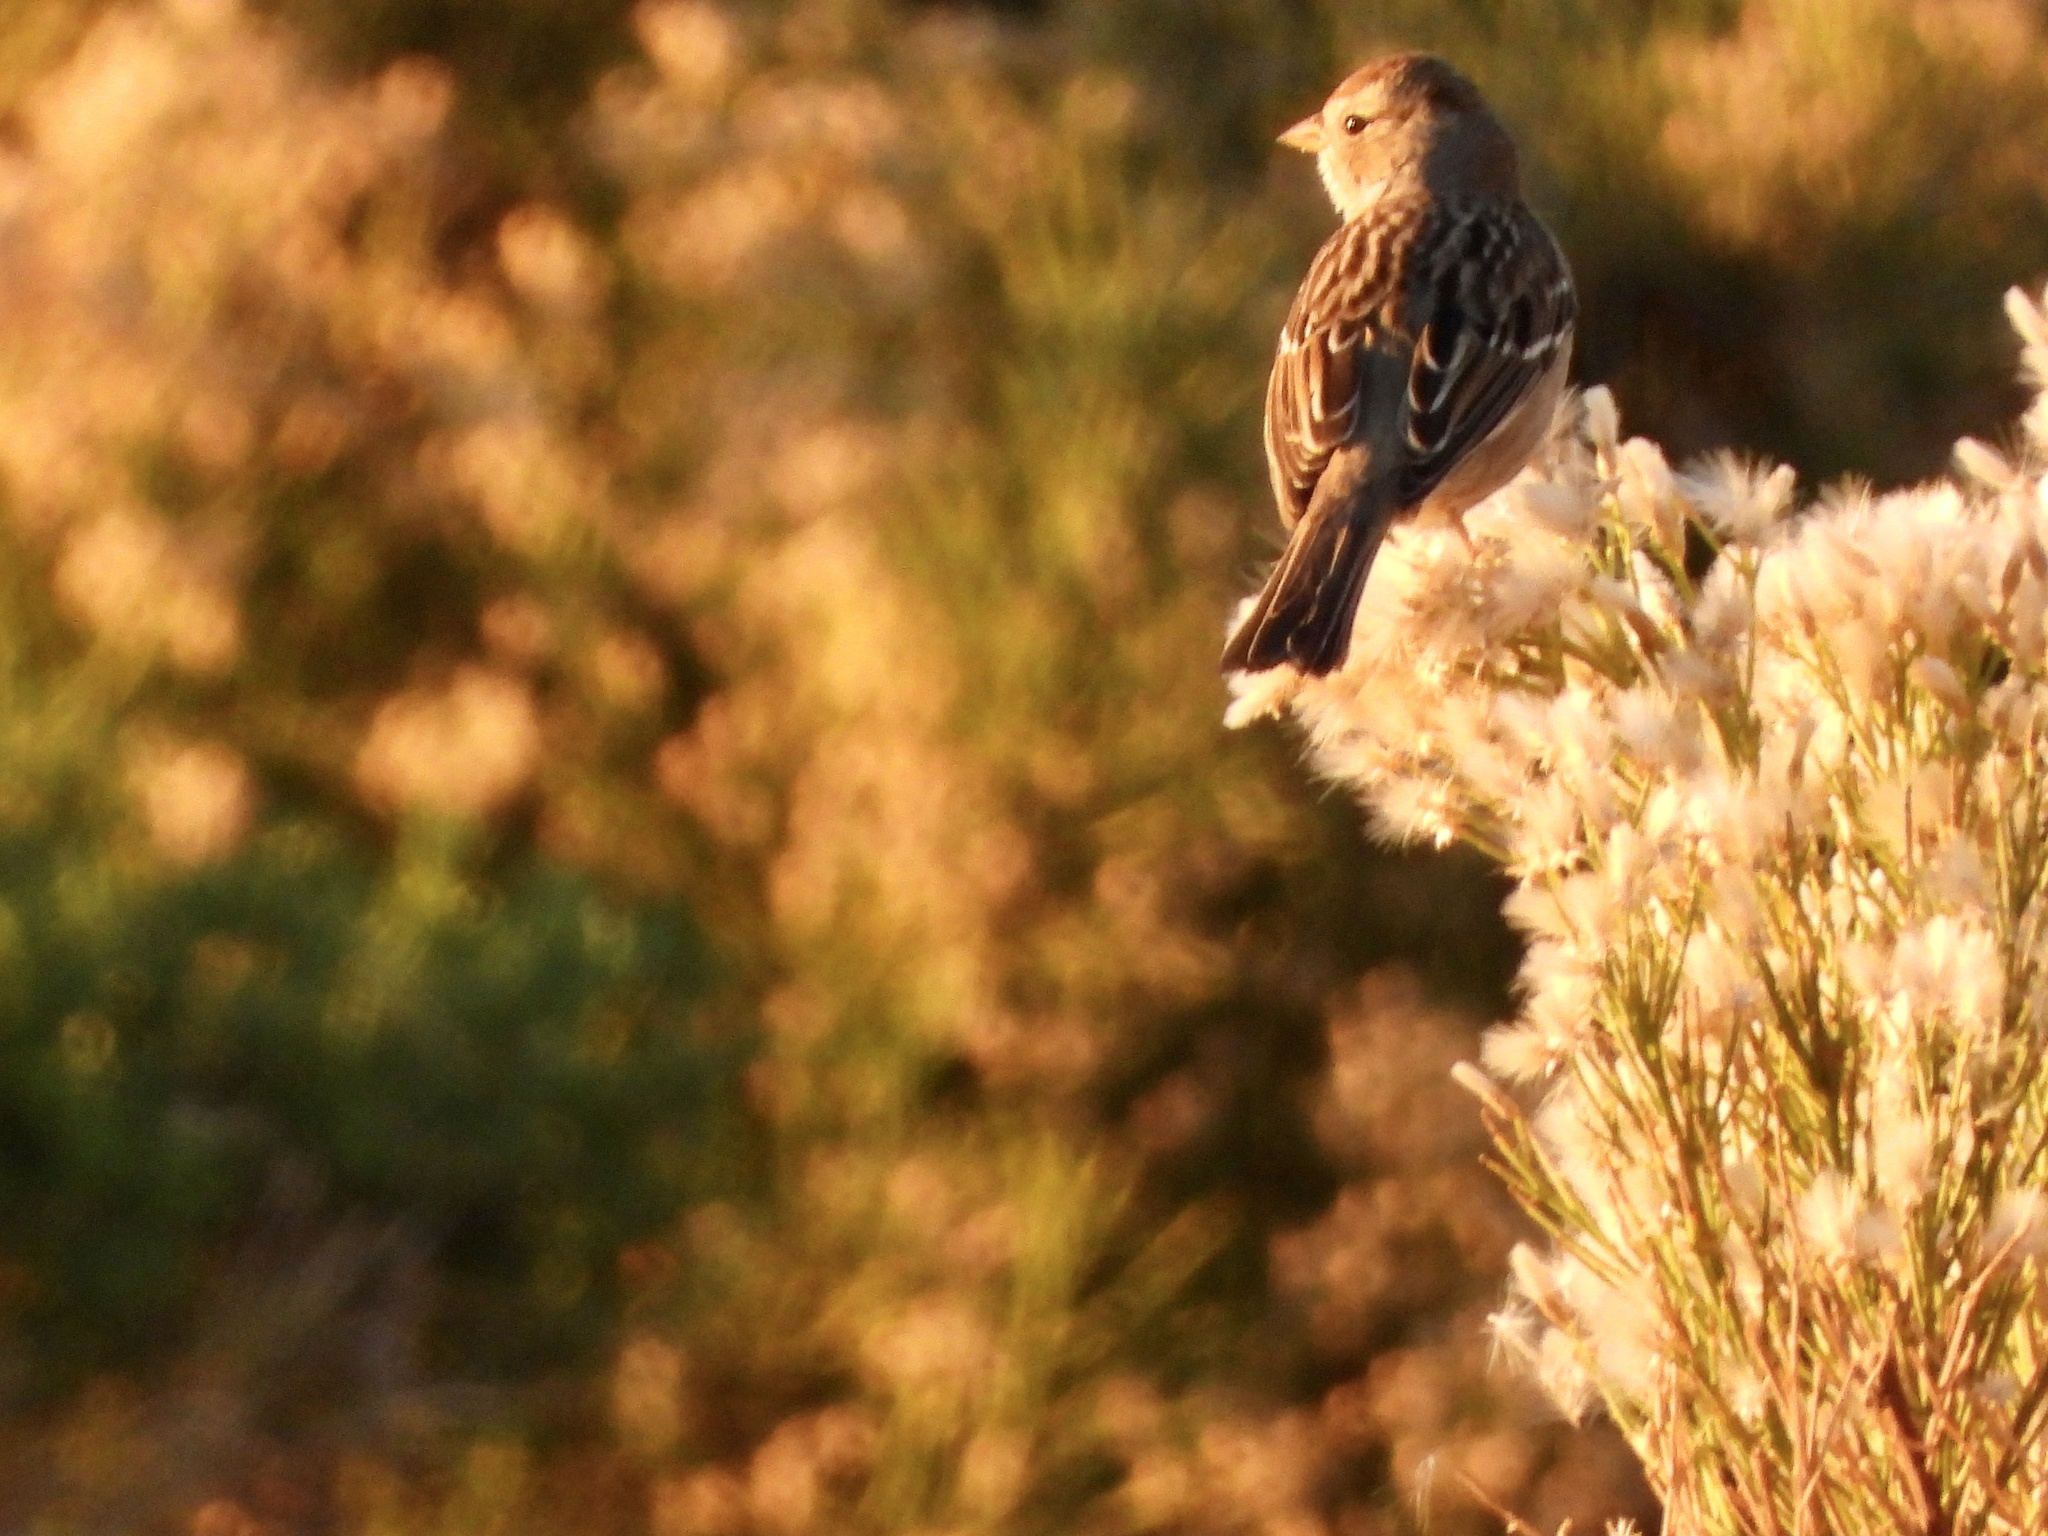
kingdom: Animalia
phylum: Chordata
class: Aves
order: Passeriformes
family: Passerellidae
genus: Zonotrichia
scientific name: Zonotrichia leucophrys
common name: White-crowned sparrow
